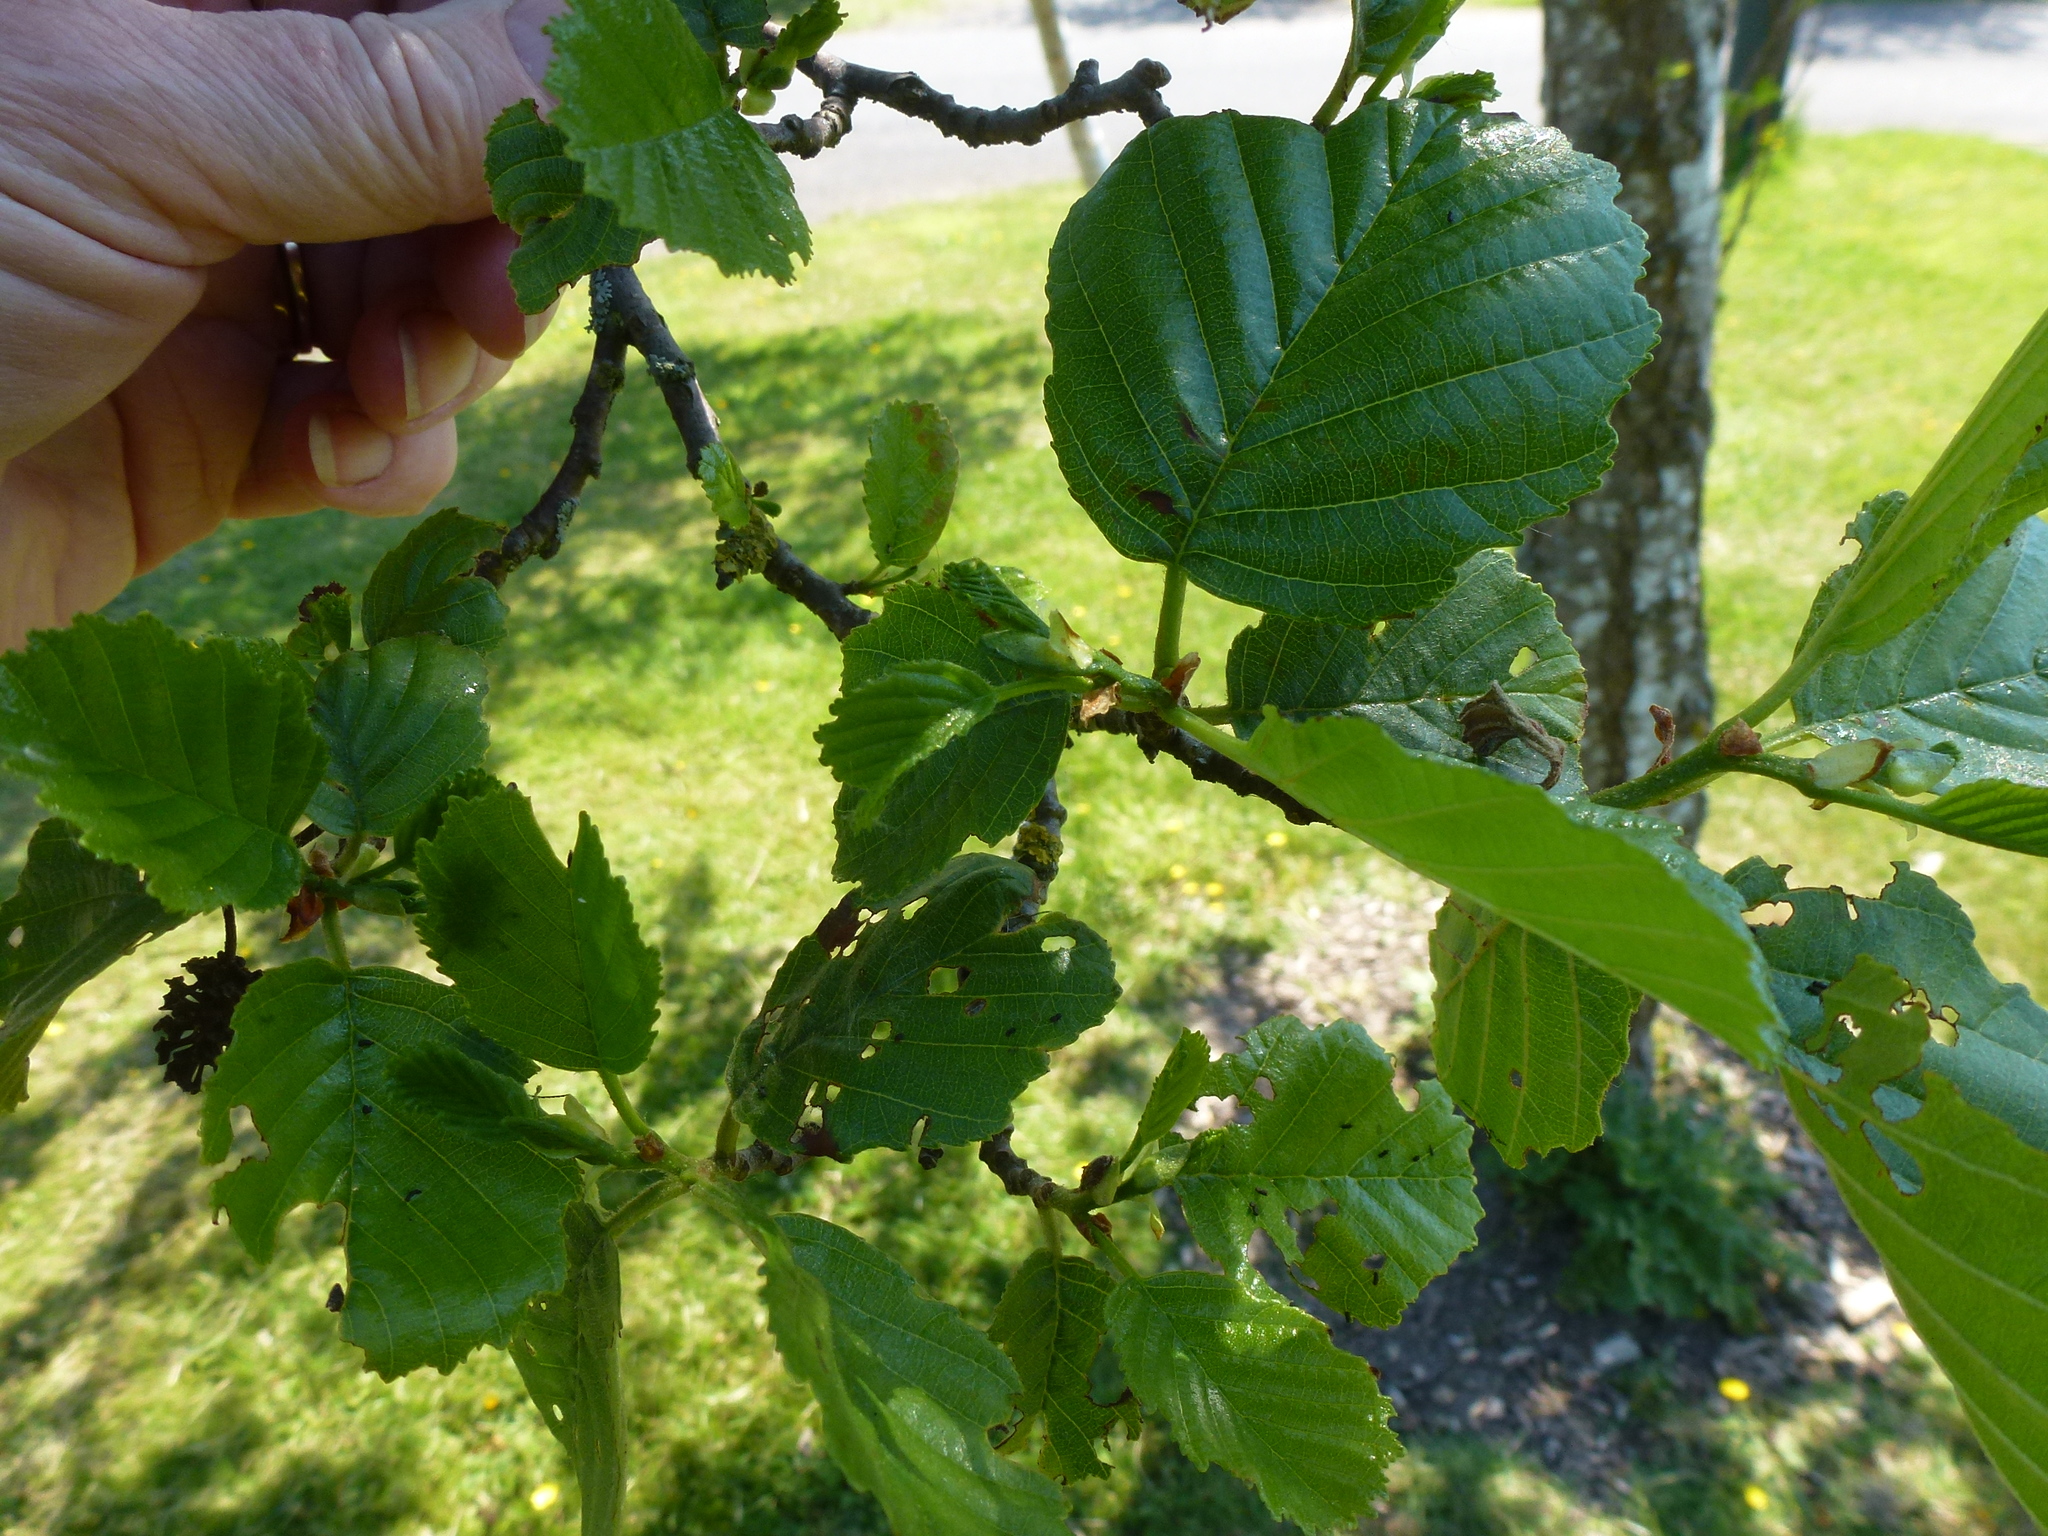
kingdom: Plantae
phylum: Tracheophyta
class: Magnoliopsida
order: Fagales
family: Betulaceae
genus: Alnus
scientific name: Alnus glutinosa
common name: Black alder
